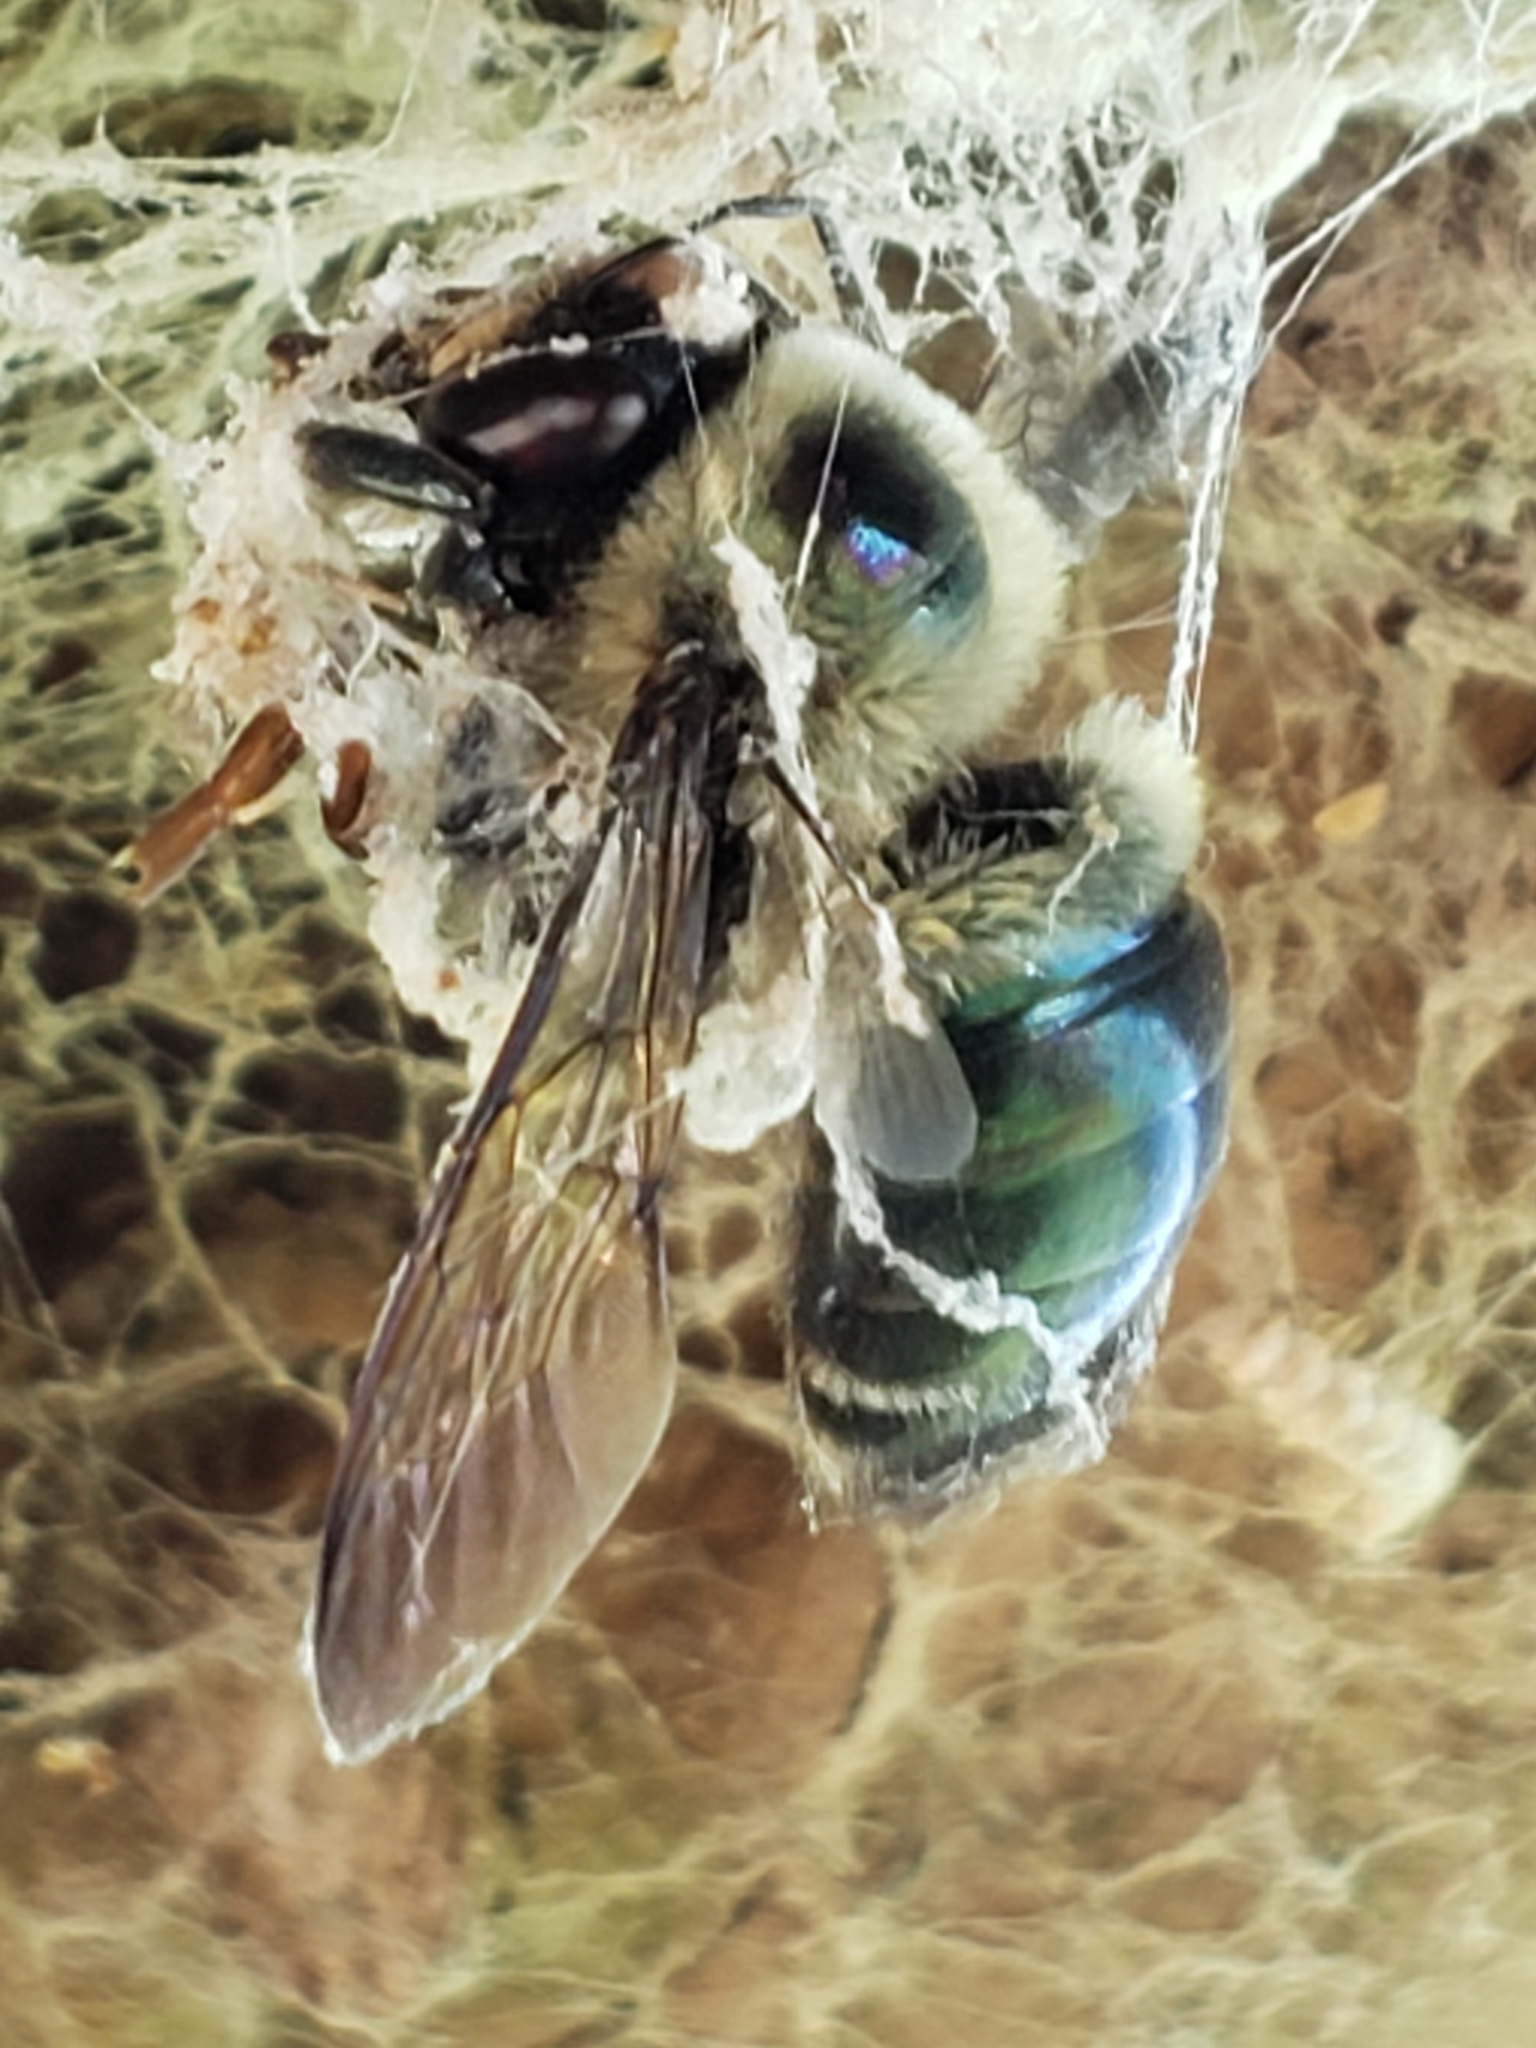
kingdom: Animalia
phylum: Arthropoda
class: Insecta
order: Hymenoptera
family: Apidae
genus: Xylocopa
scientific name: Xylocopa virginica
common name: Carpenter bee
